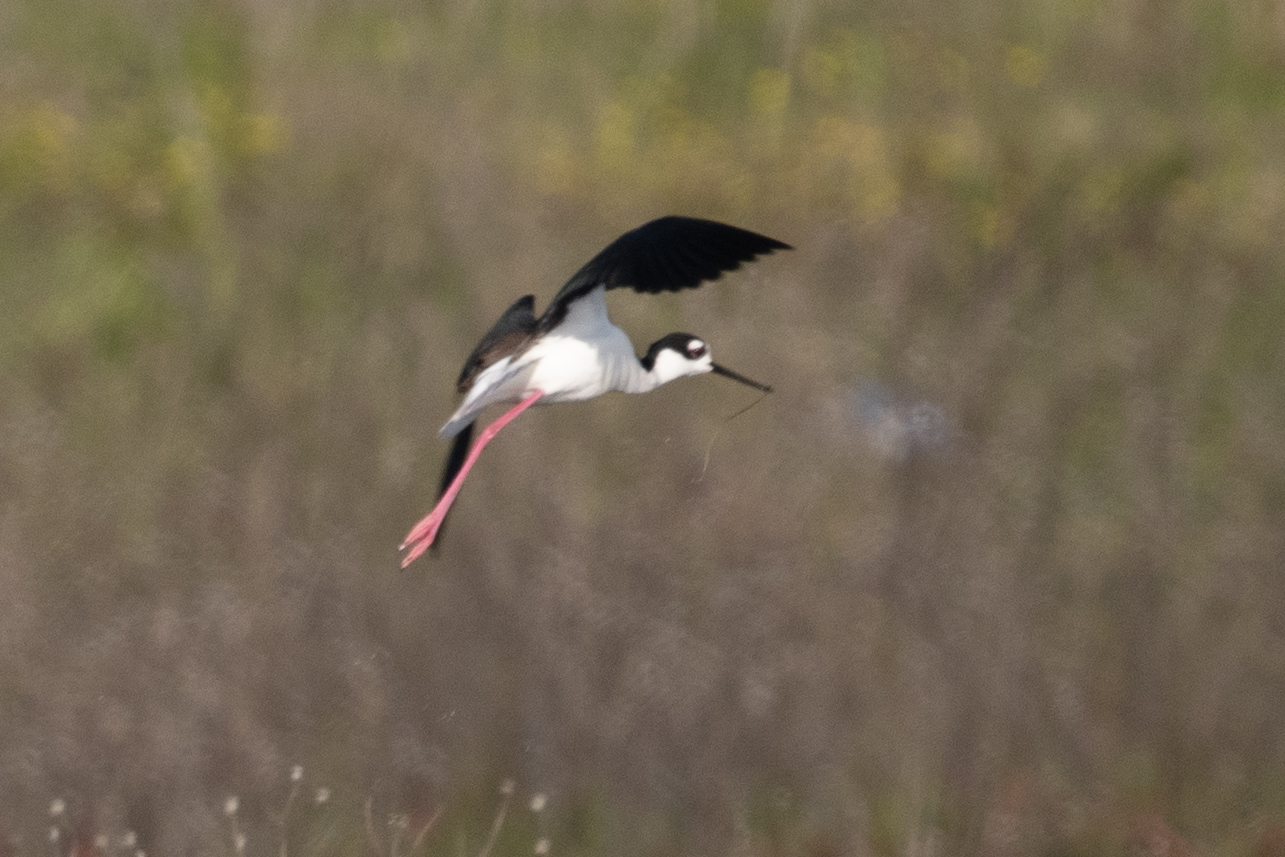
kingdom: Animalia
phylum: Chordata
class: Aves
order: Charadriiformes
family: Recurvirostridae
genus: Himantopus
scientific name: Himantopus mexicanus
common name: Black-necked stilt
